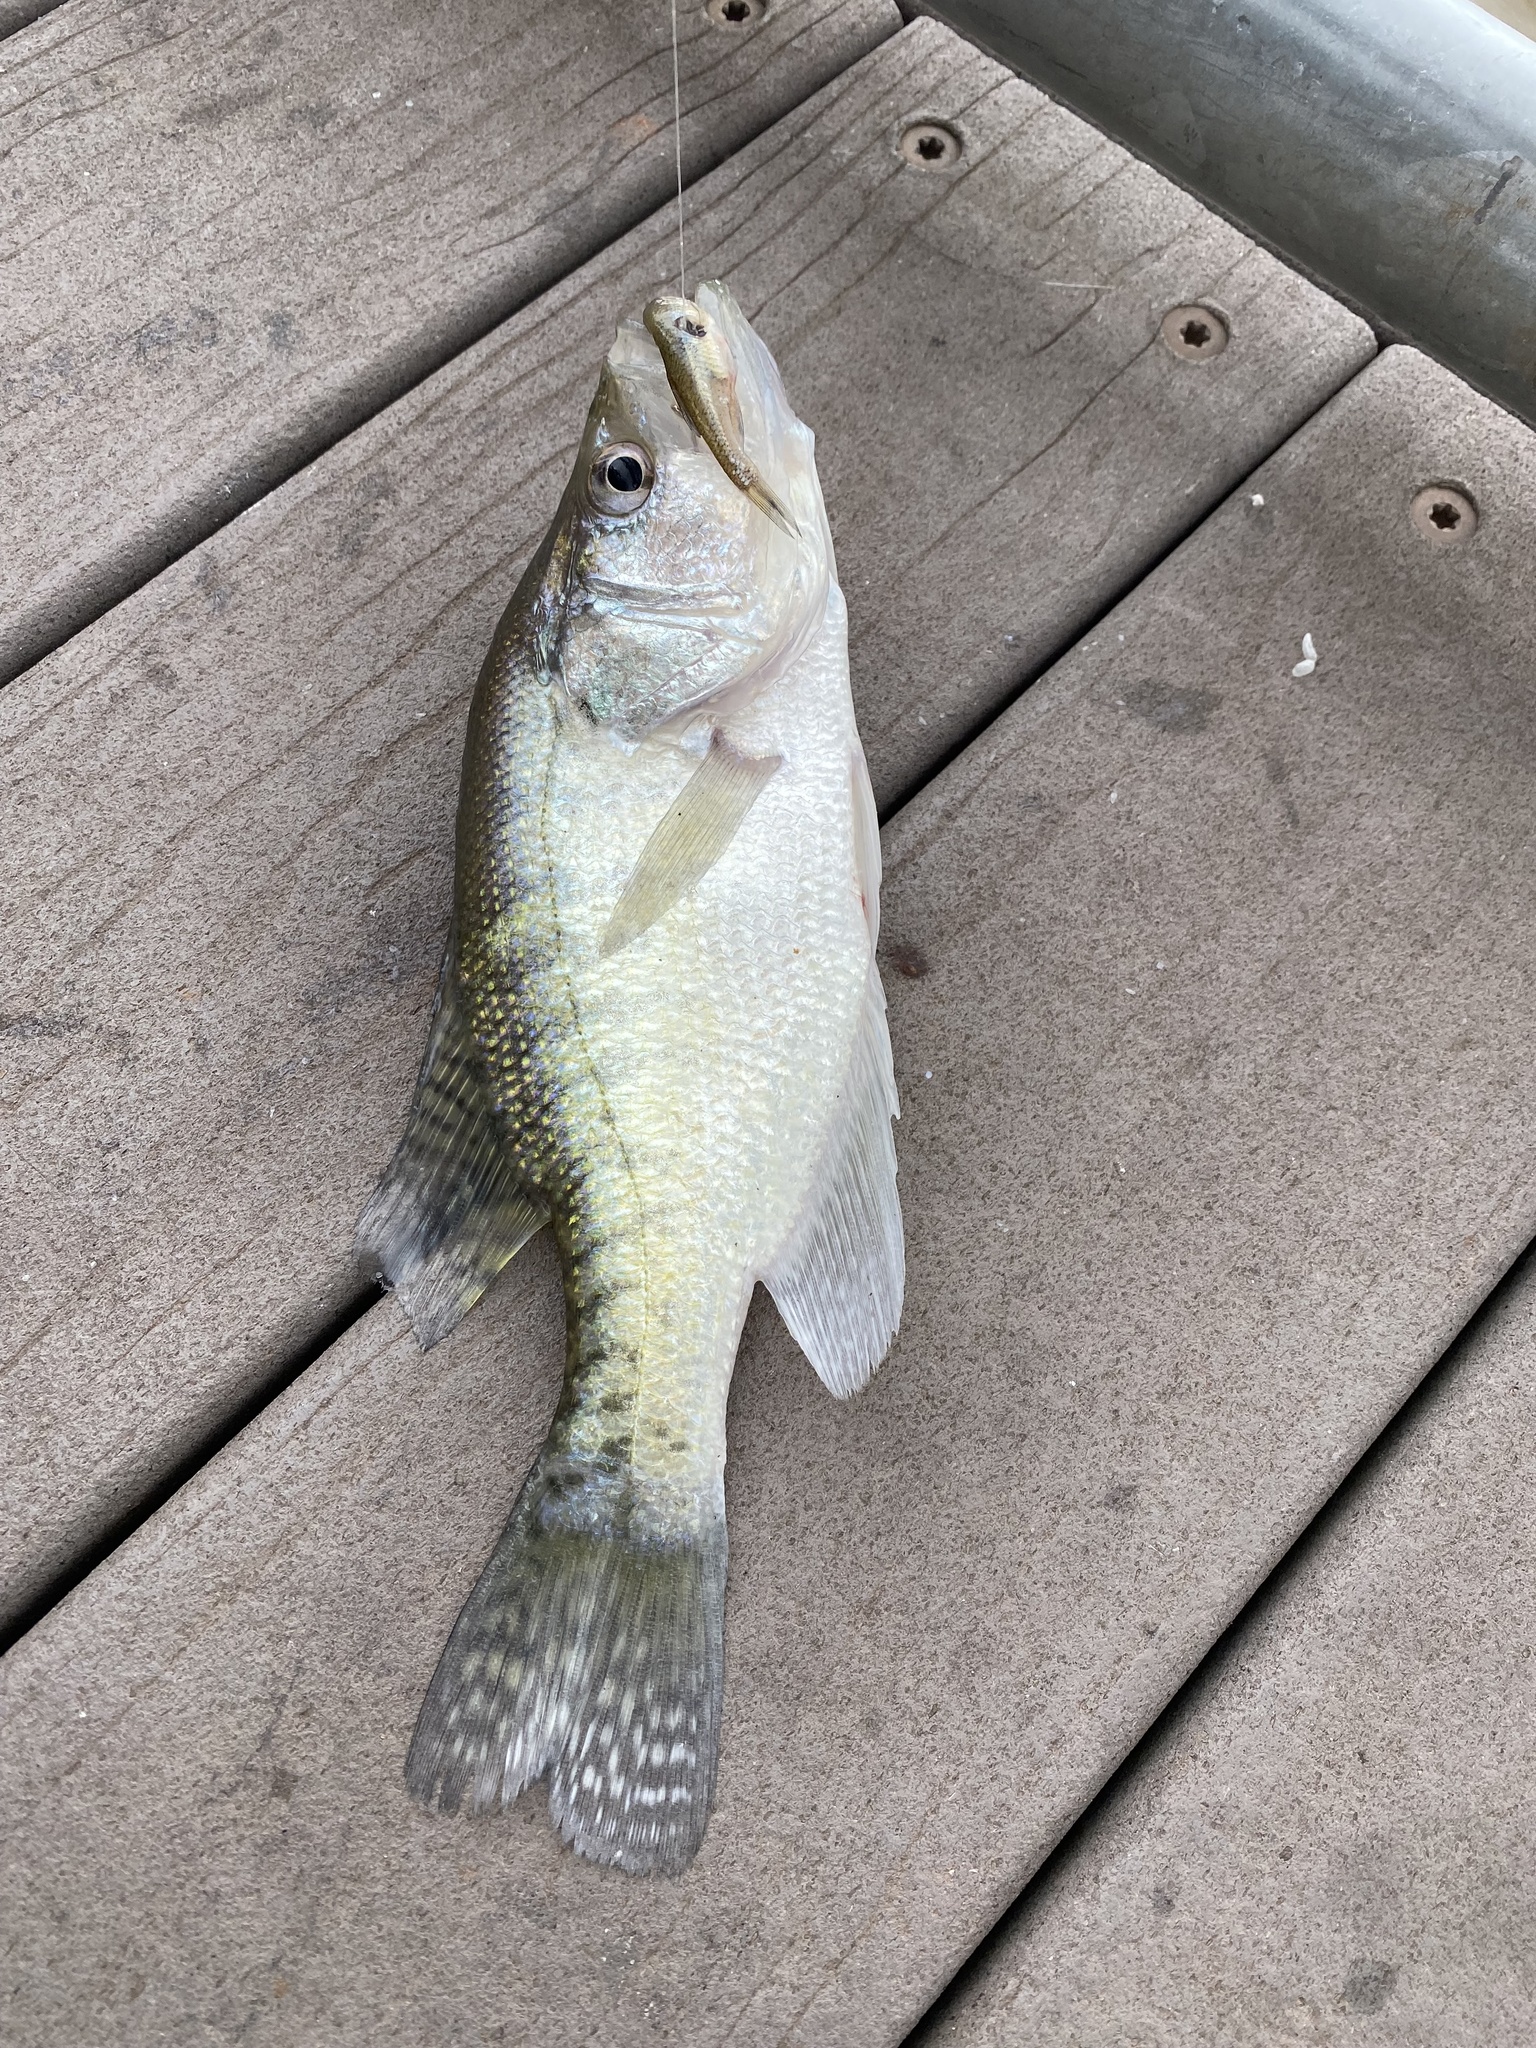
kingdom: Animalia
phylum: Chordata
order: Perciformes
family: Centrarchidae
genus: Pomoxis
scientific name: Pomoxis annularis
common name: White crappie
